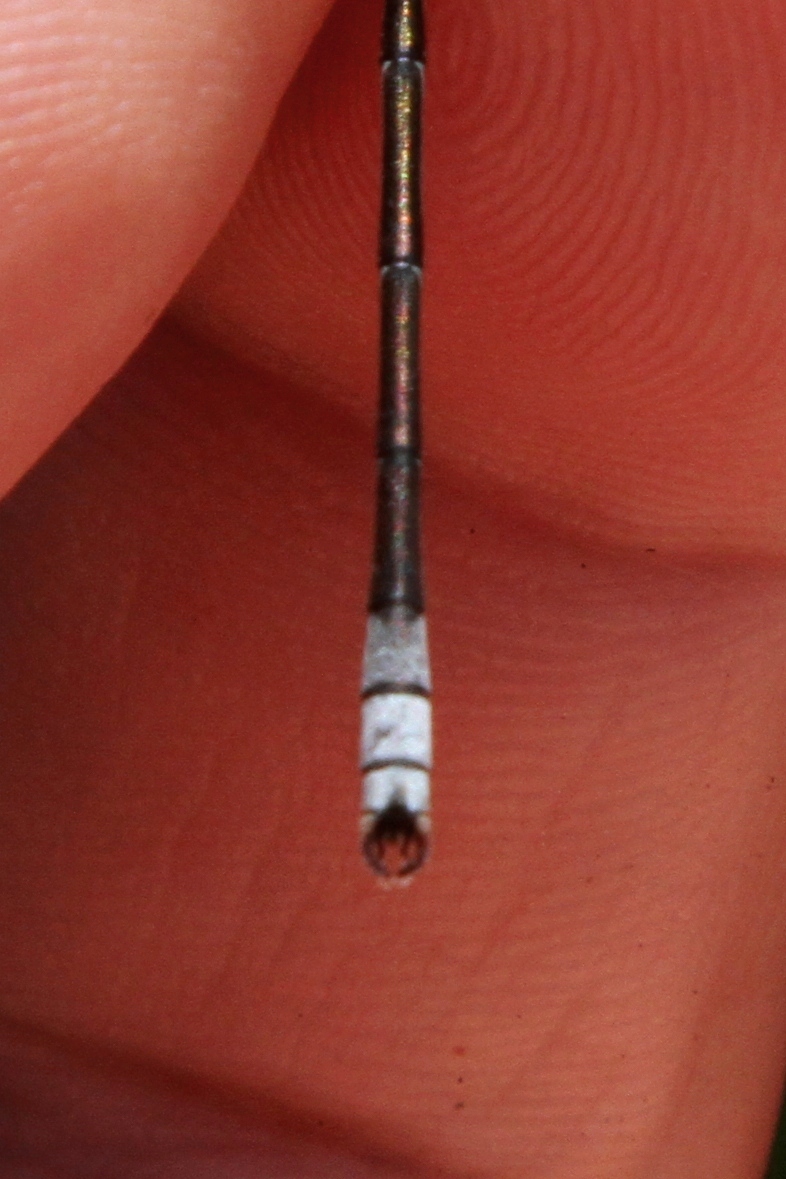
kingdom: Animalia
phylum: Arthropoda
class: Insecta
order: Odonata
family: Lestidae
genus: Lestes
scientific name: Lestes unguiculatus
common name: Lyre-tipped spreadwing
